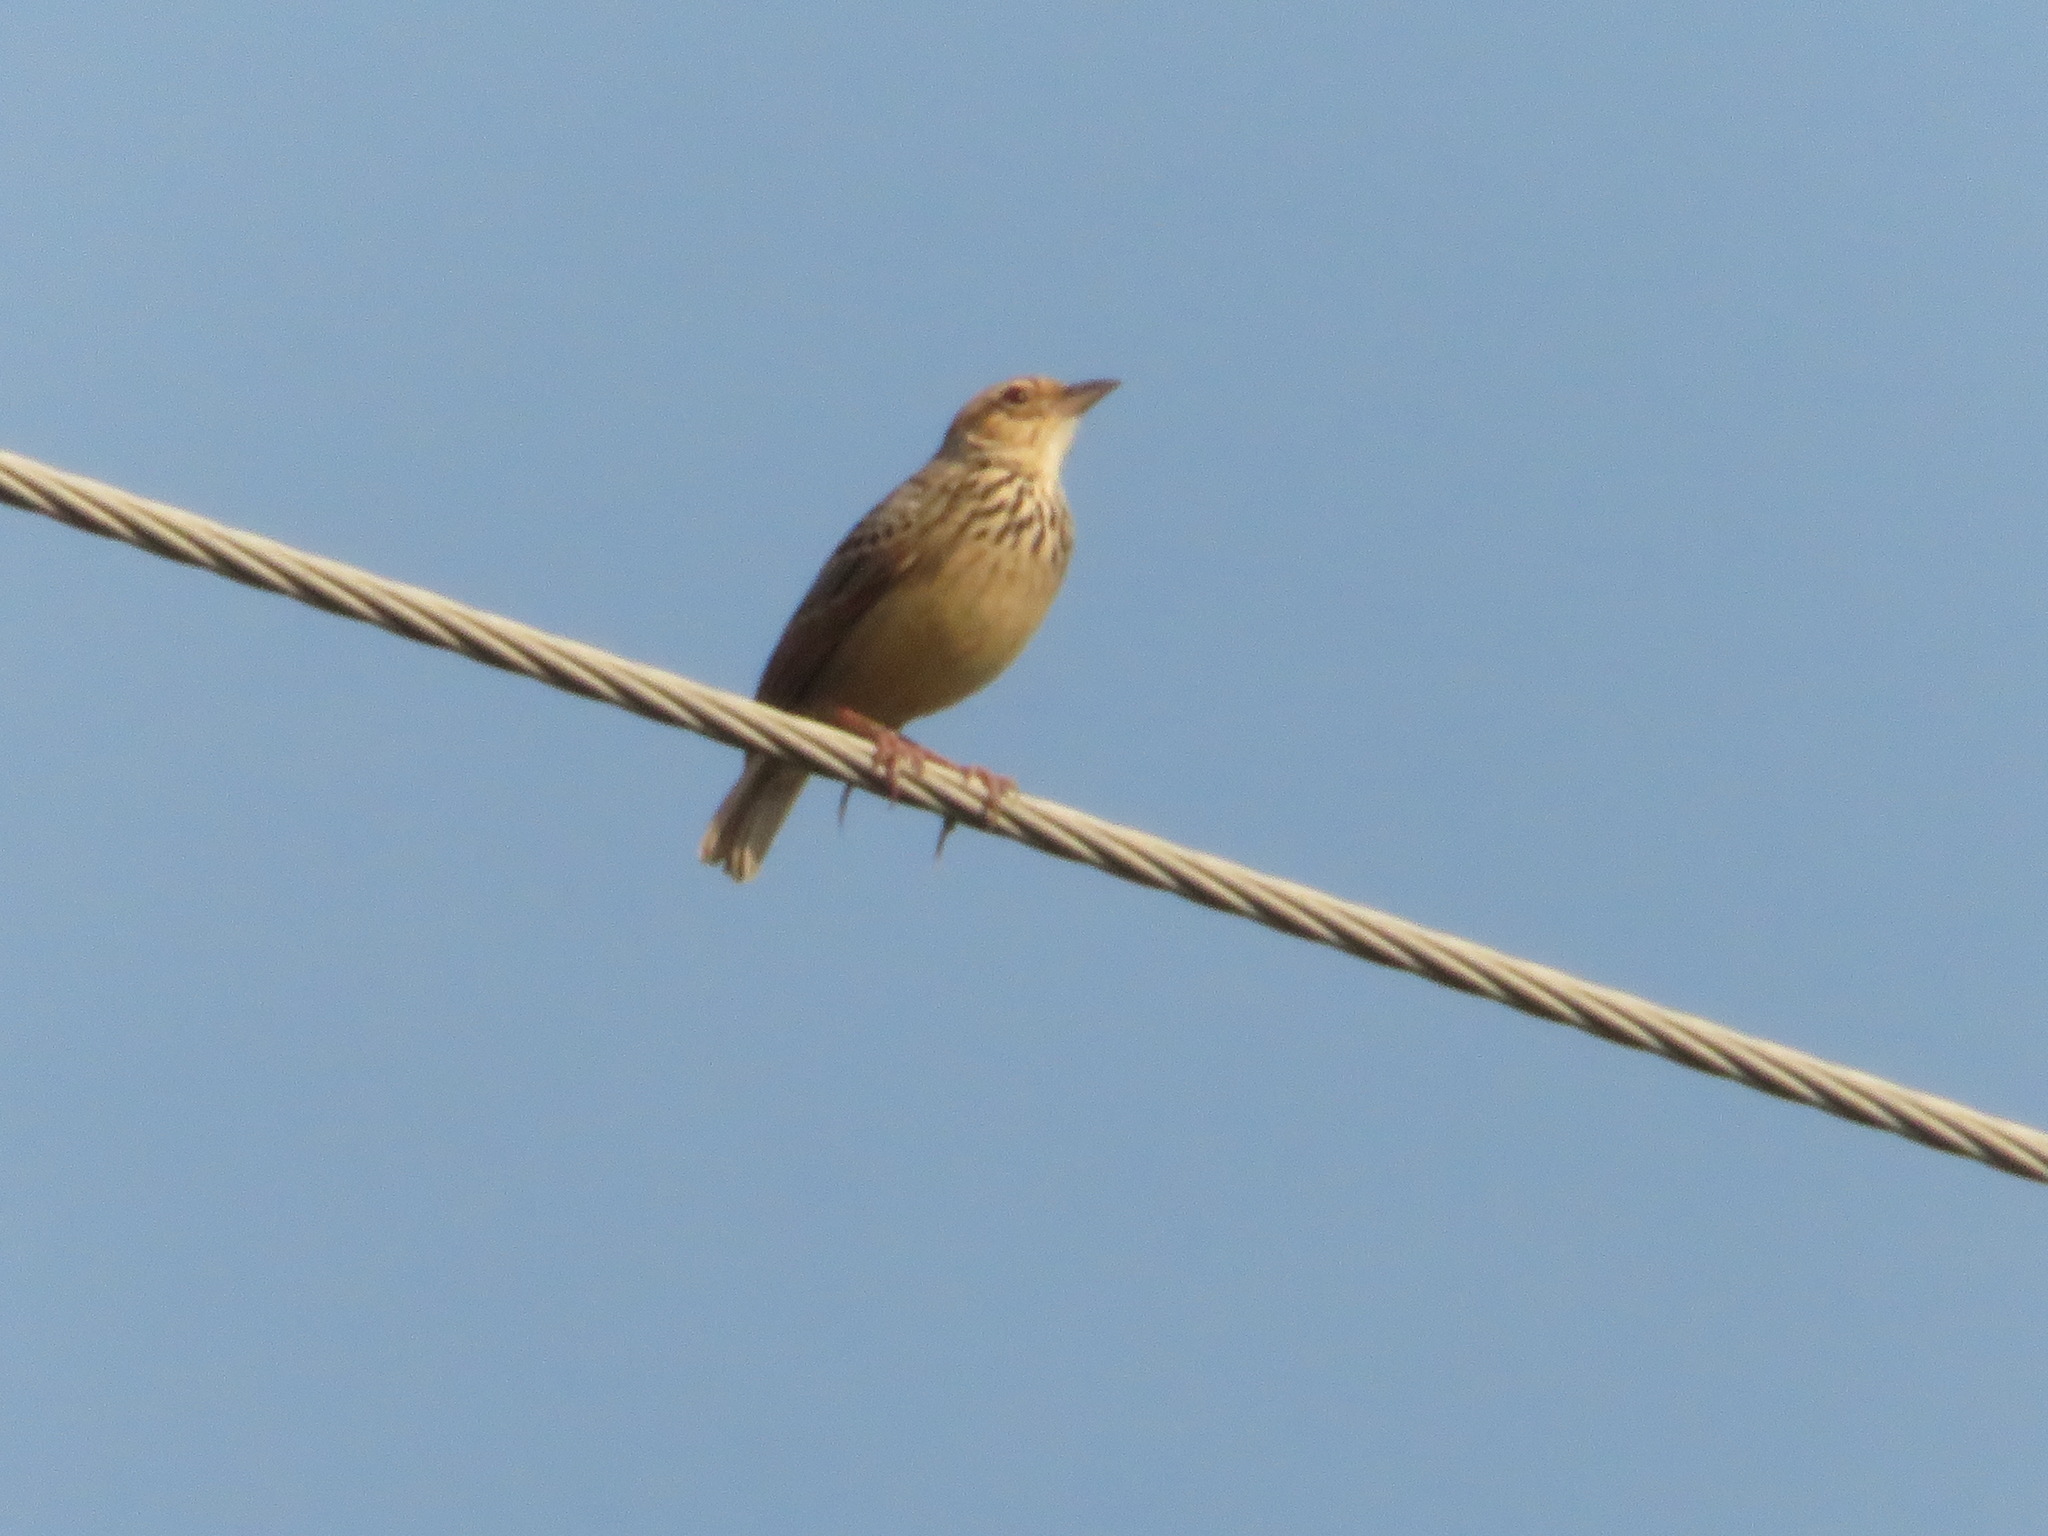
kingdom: Animalia
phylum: Chordata
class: Aves
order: Passeriformes
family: Alaudidae
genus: Mirafra
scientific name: Mirafra erythrocephala
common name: Indochinese bushlark
